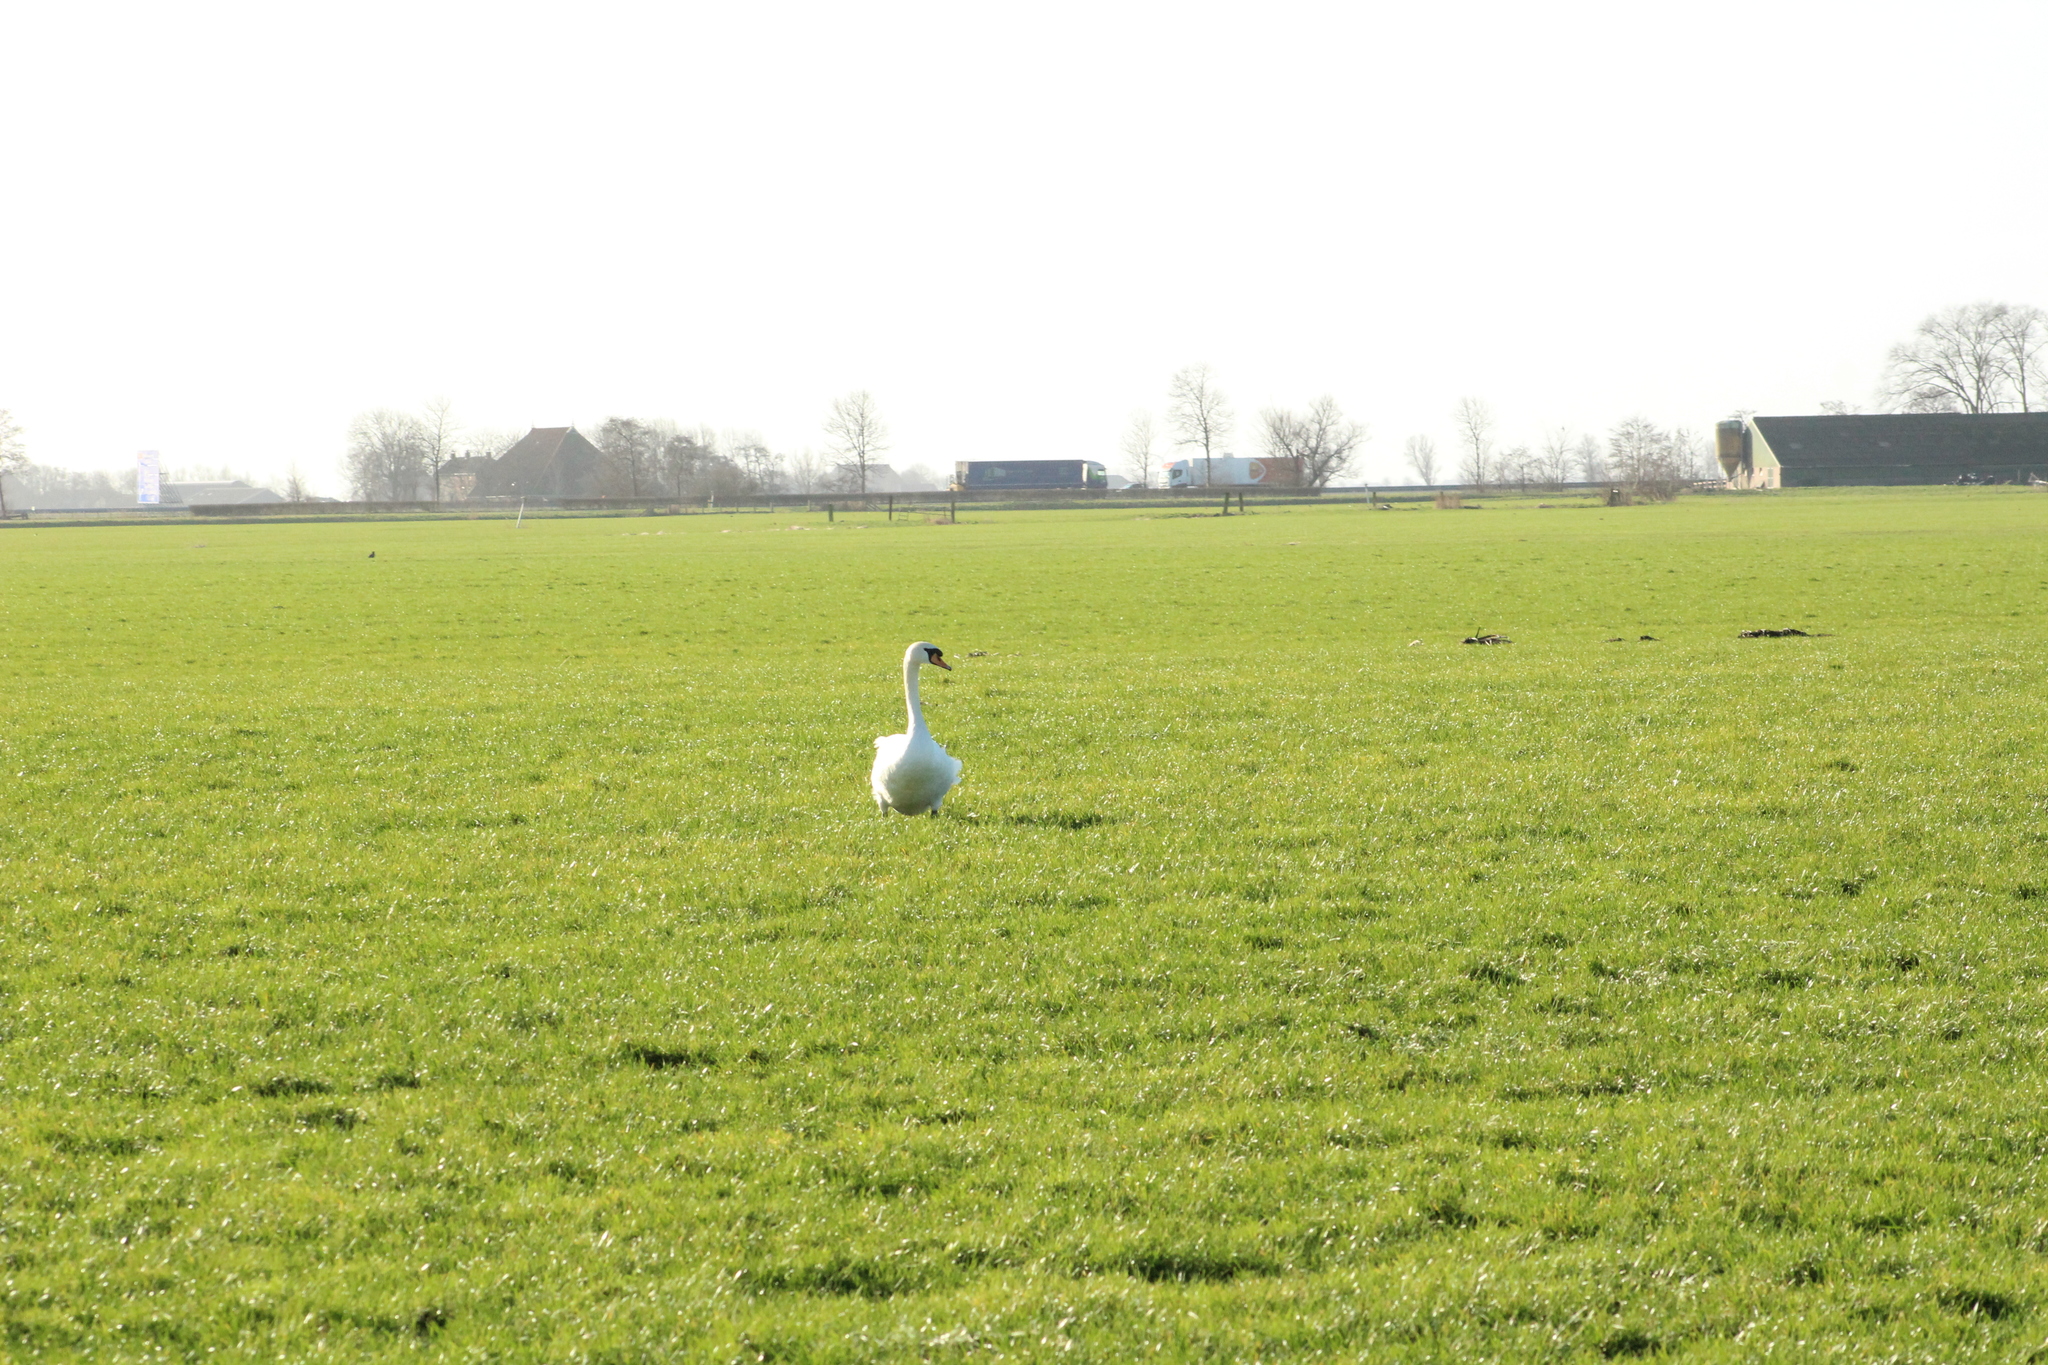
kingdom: Animalia
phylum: Chordata
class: Aves
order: Anseriformes
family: Anatidae
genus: Cygnus
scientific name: Cygnus olor
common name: Mute swan
